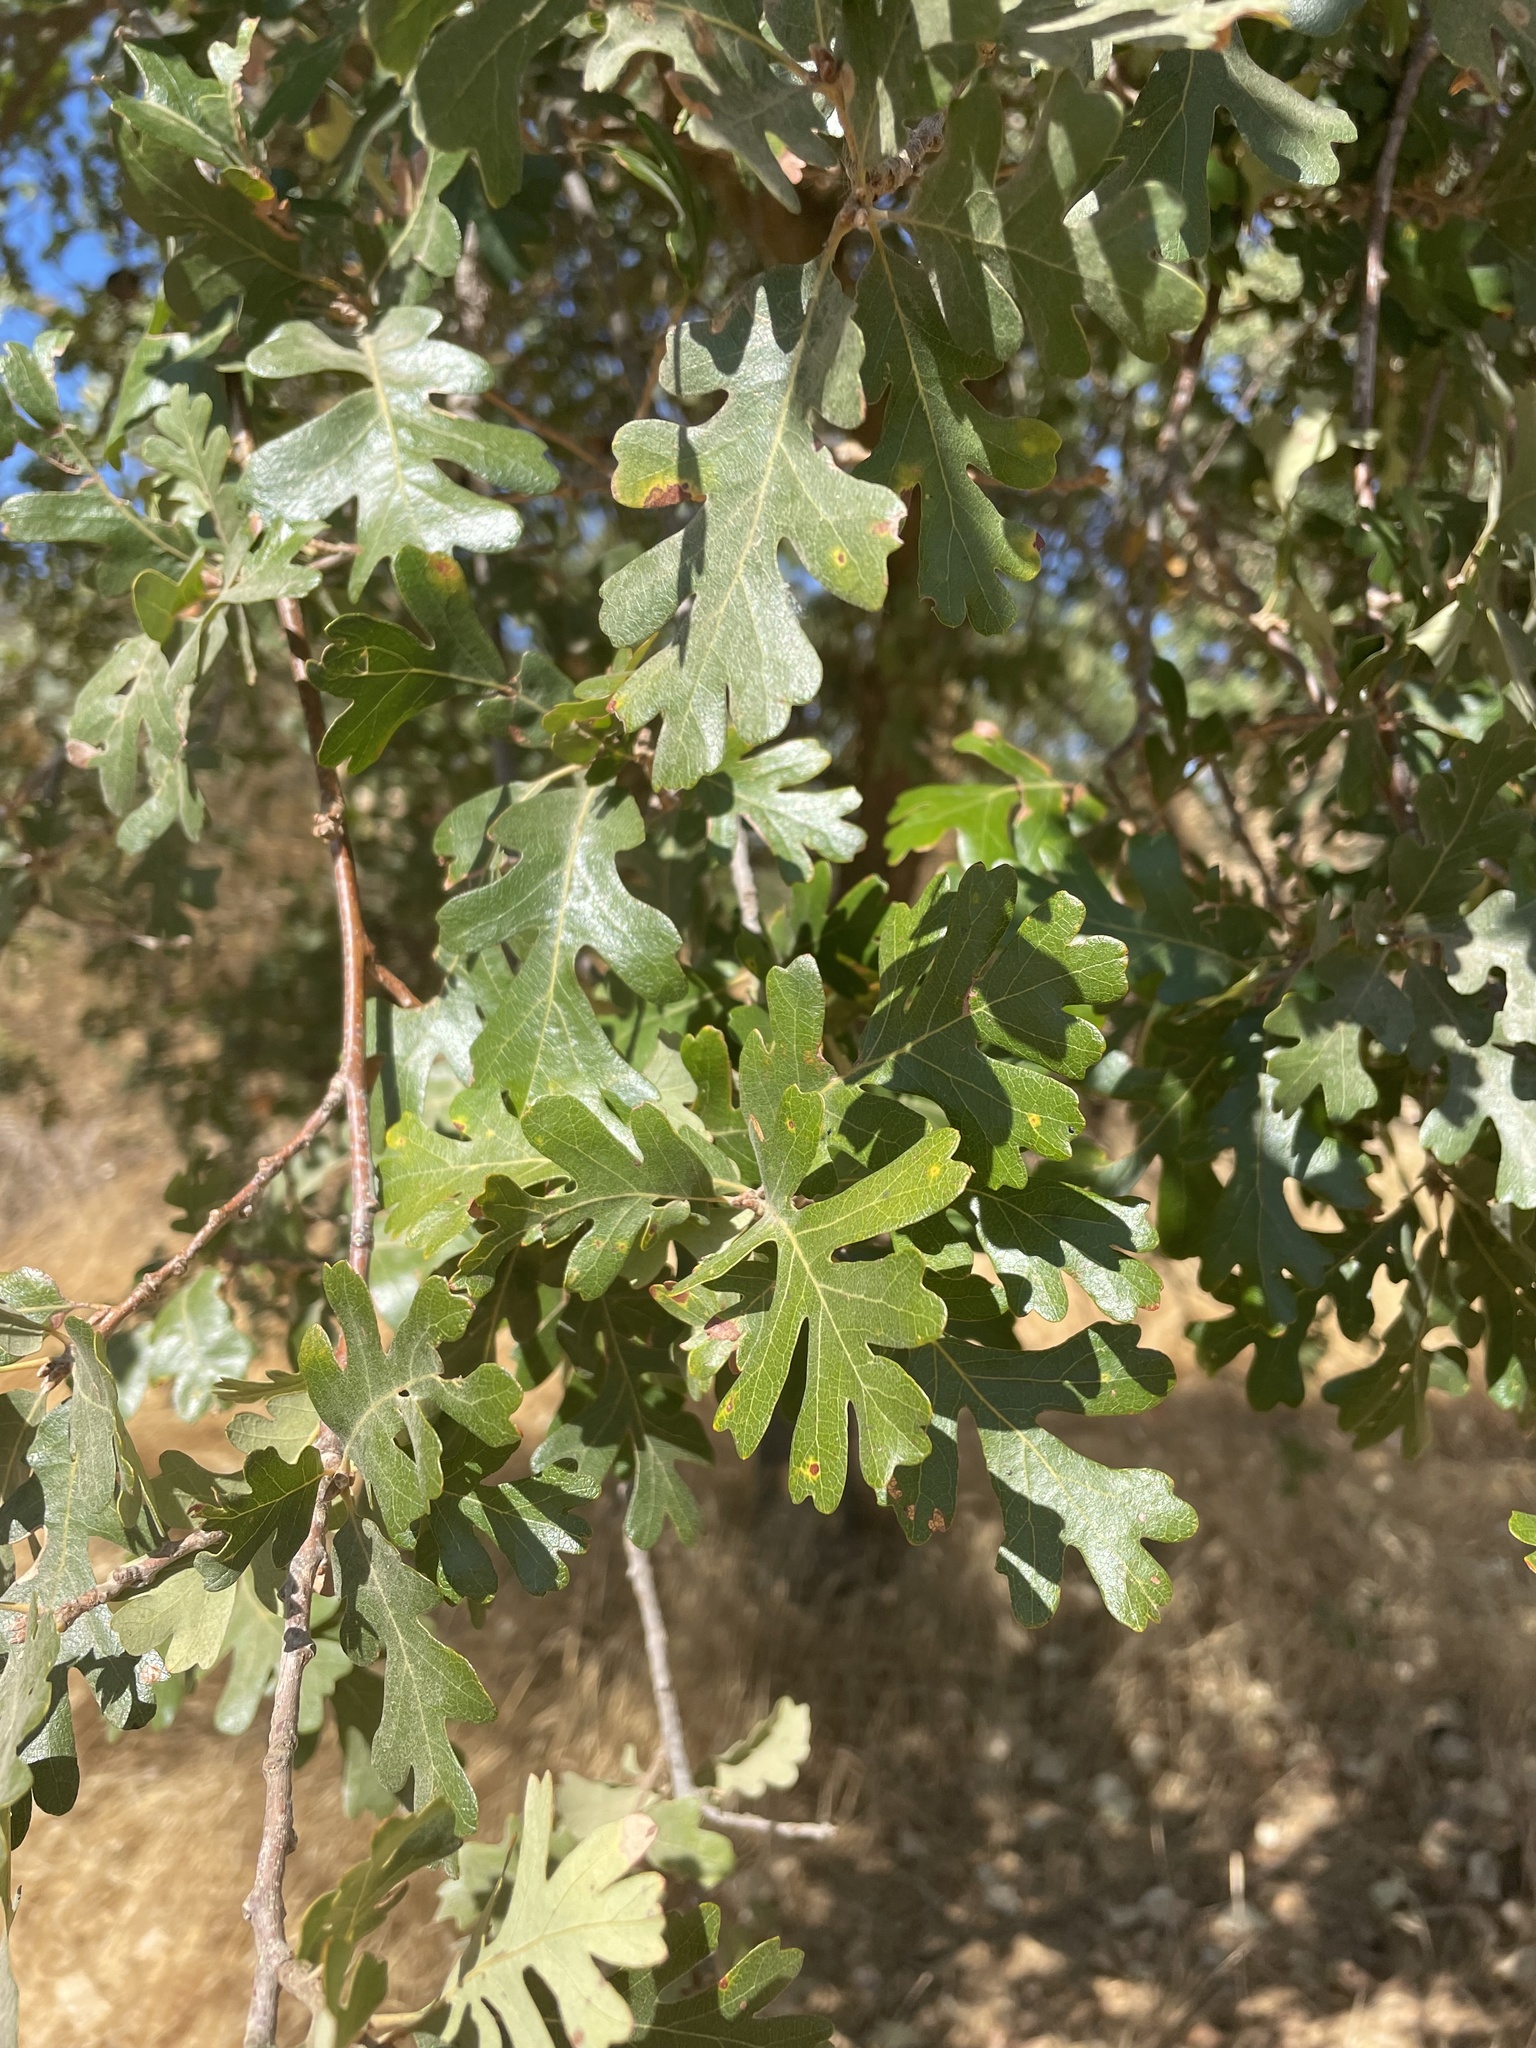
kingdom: Plantae
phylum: Tracheophyta
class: Magnoliopsida
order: Fagales
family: Fagaceae
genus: Quercus
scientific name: Quercus lobata
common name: Valley oak
